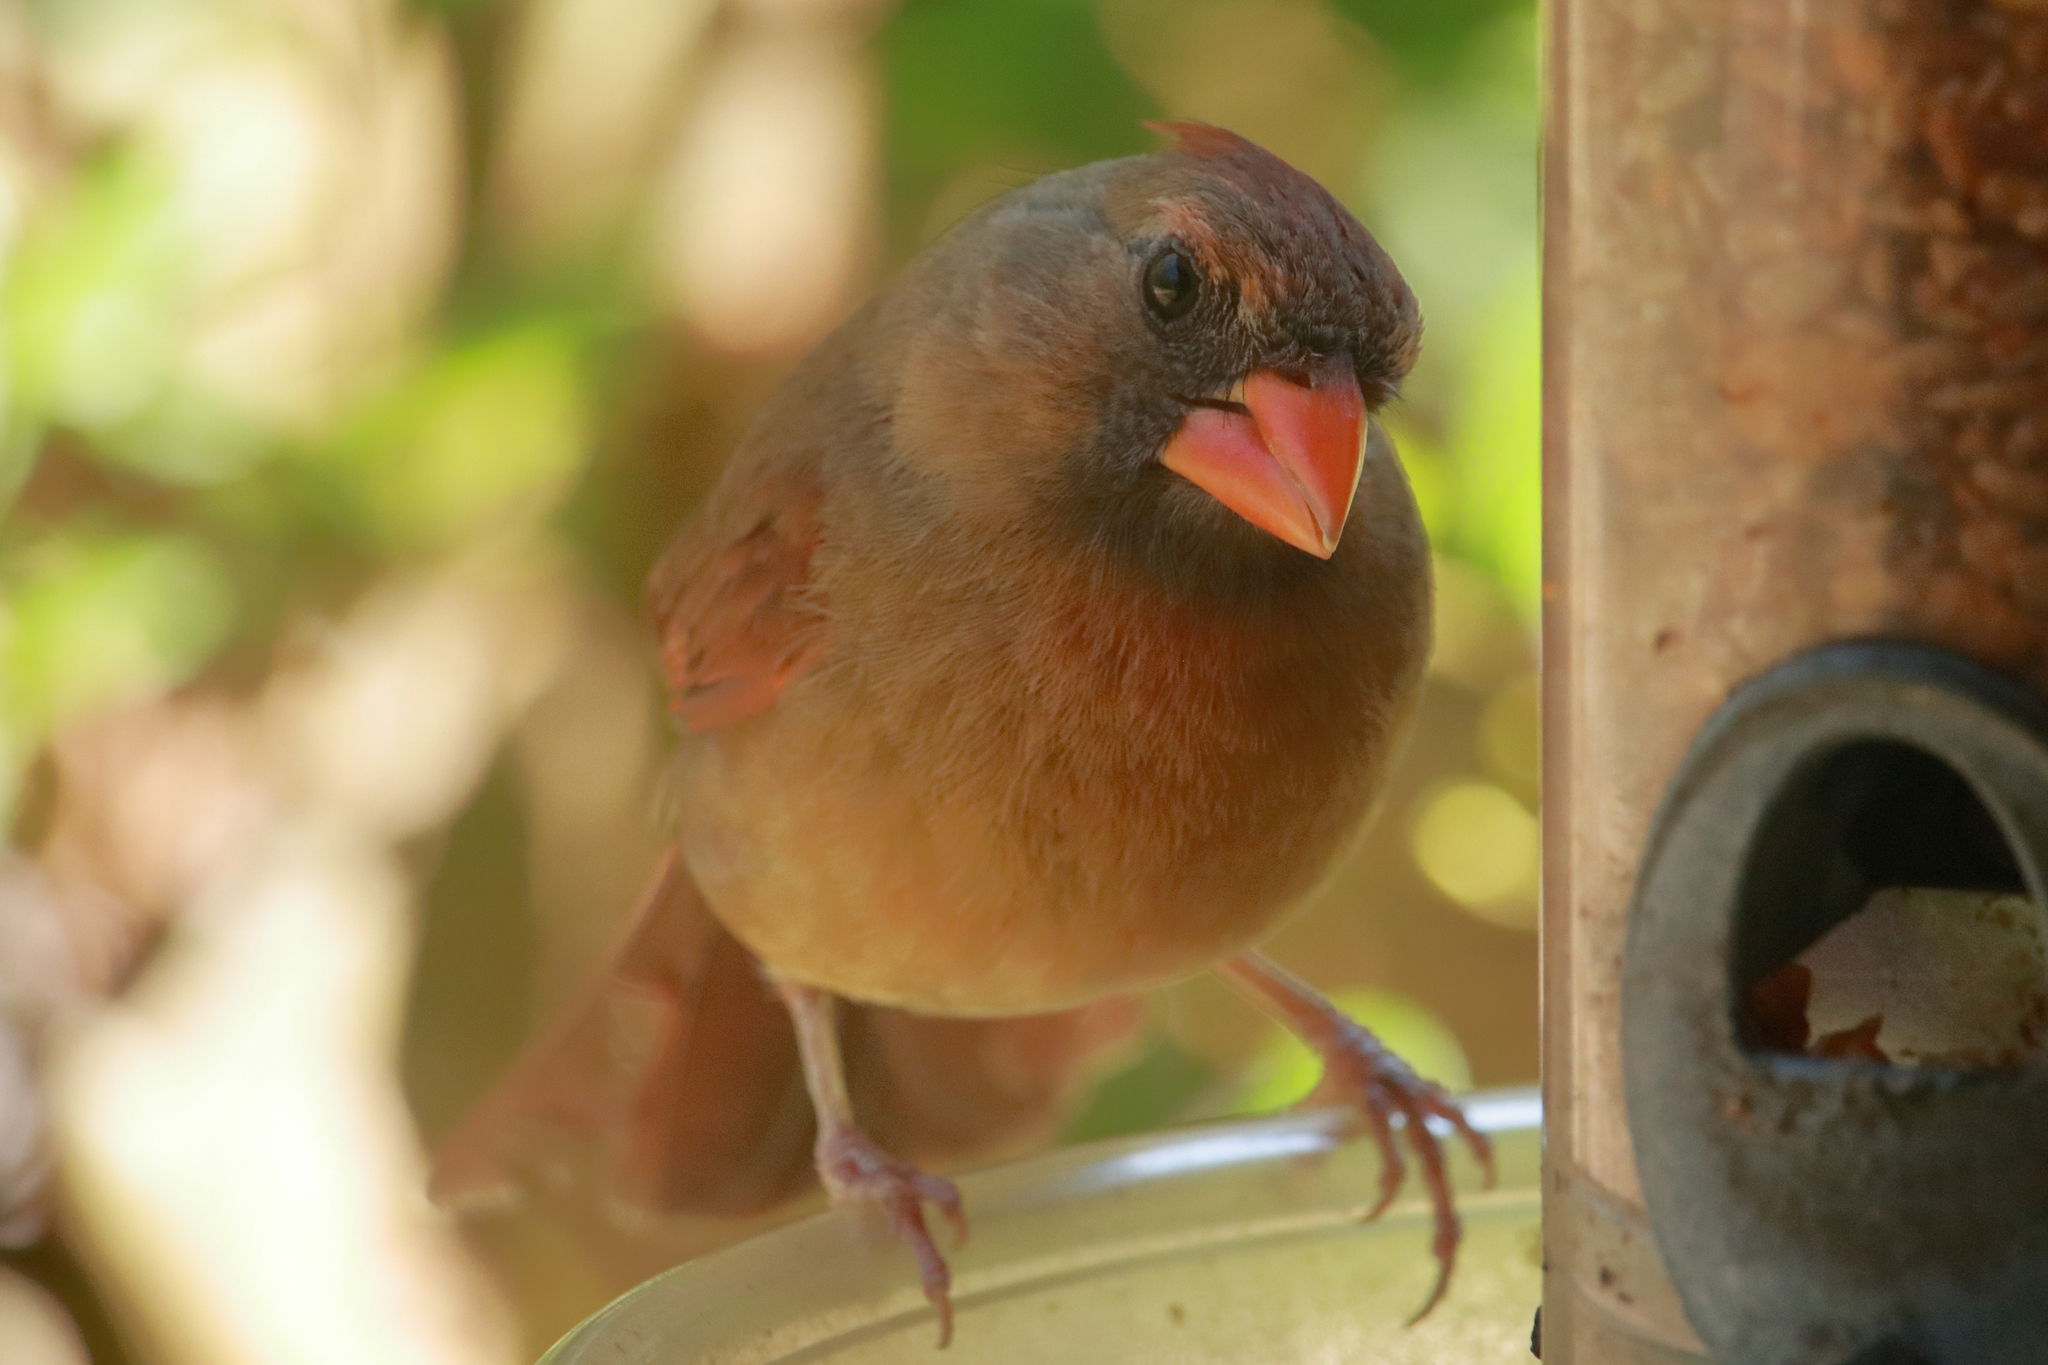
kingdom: Animalia
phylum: Chordata
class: Aves
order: Passeriformes
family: Cardinalidae
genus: Cardinalis
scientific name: Cardinalis cardinalis
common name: Northern cardinal
